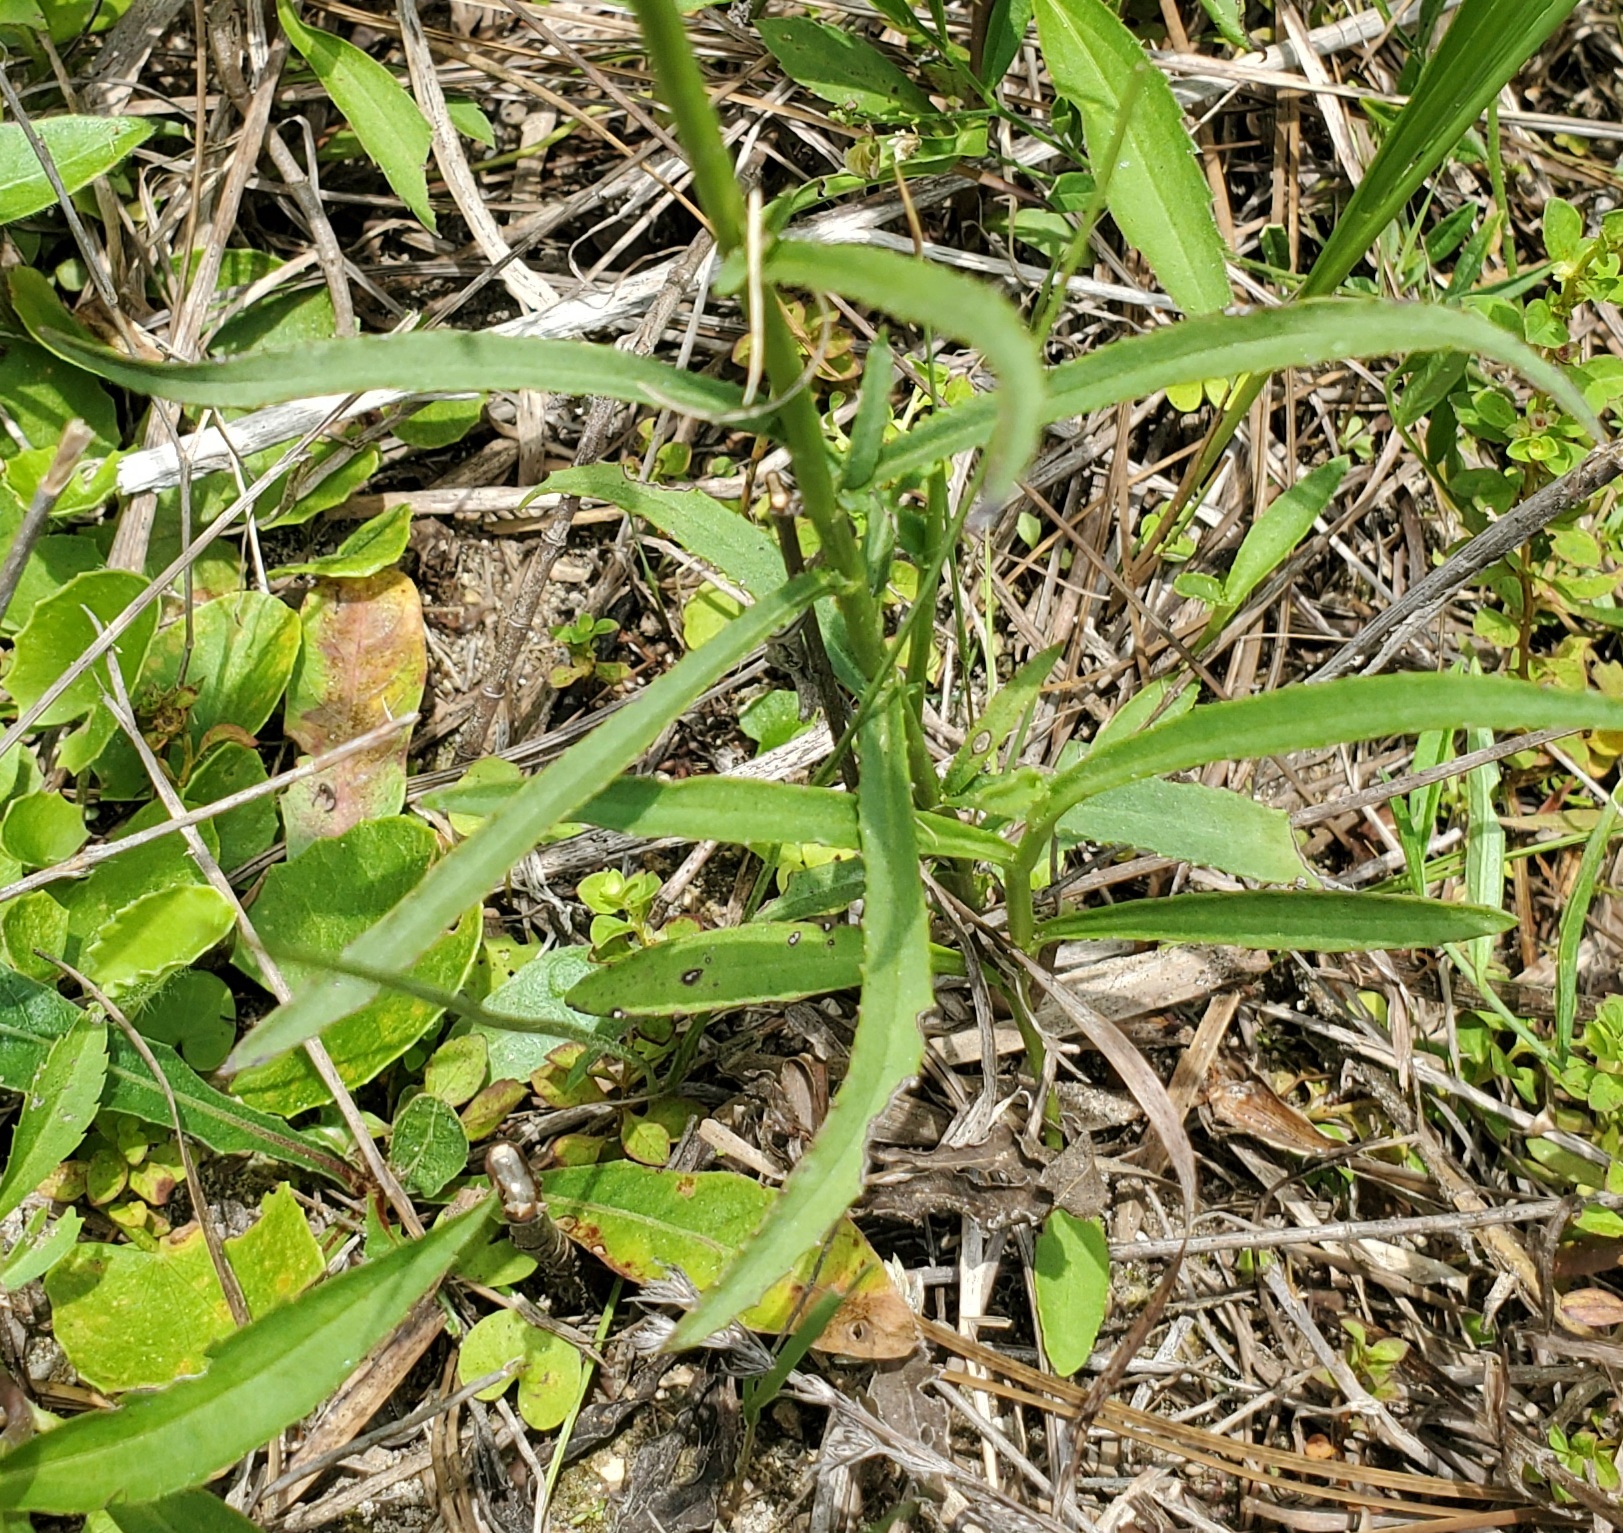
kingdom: Plantae
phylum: Tracheophyta
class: Magnoliopsida
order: Asterales
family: Campanulaceae
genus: Lobelia
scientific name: Lobelia glandulosa
